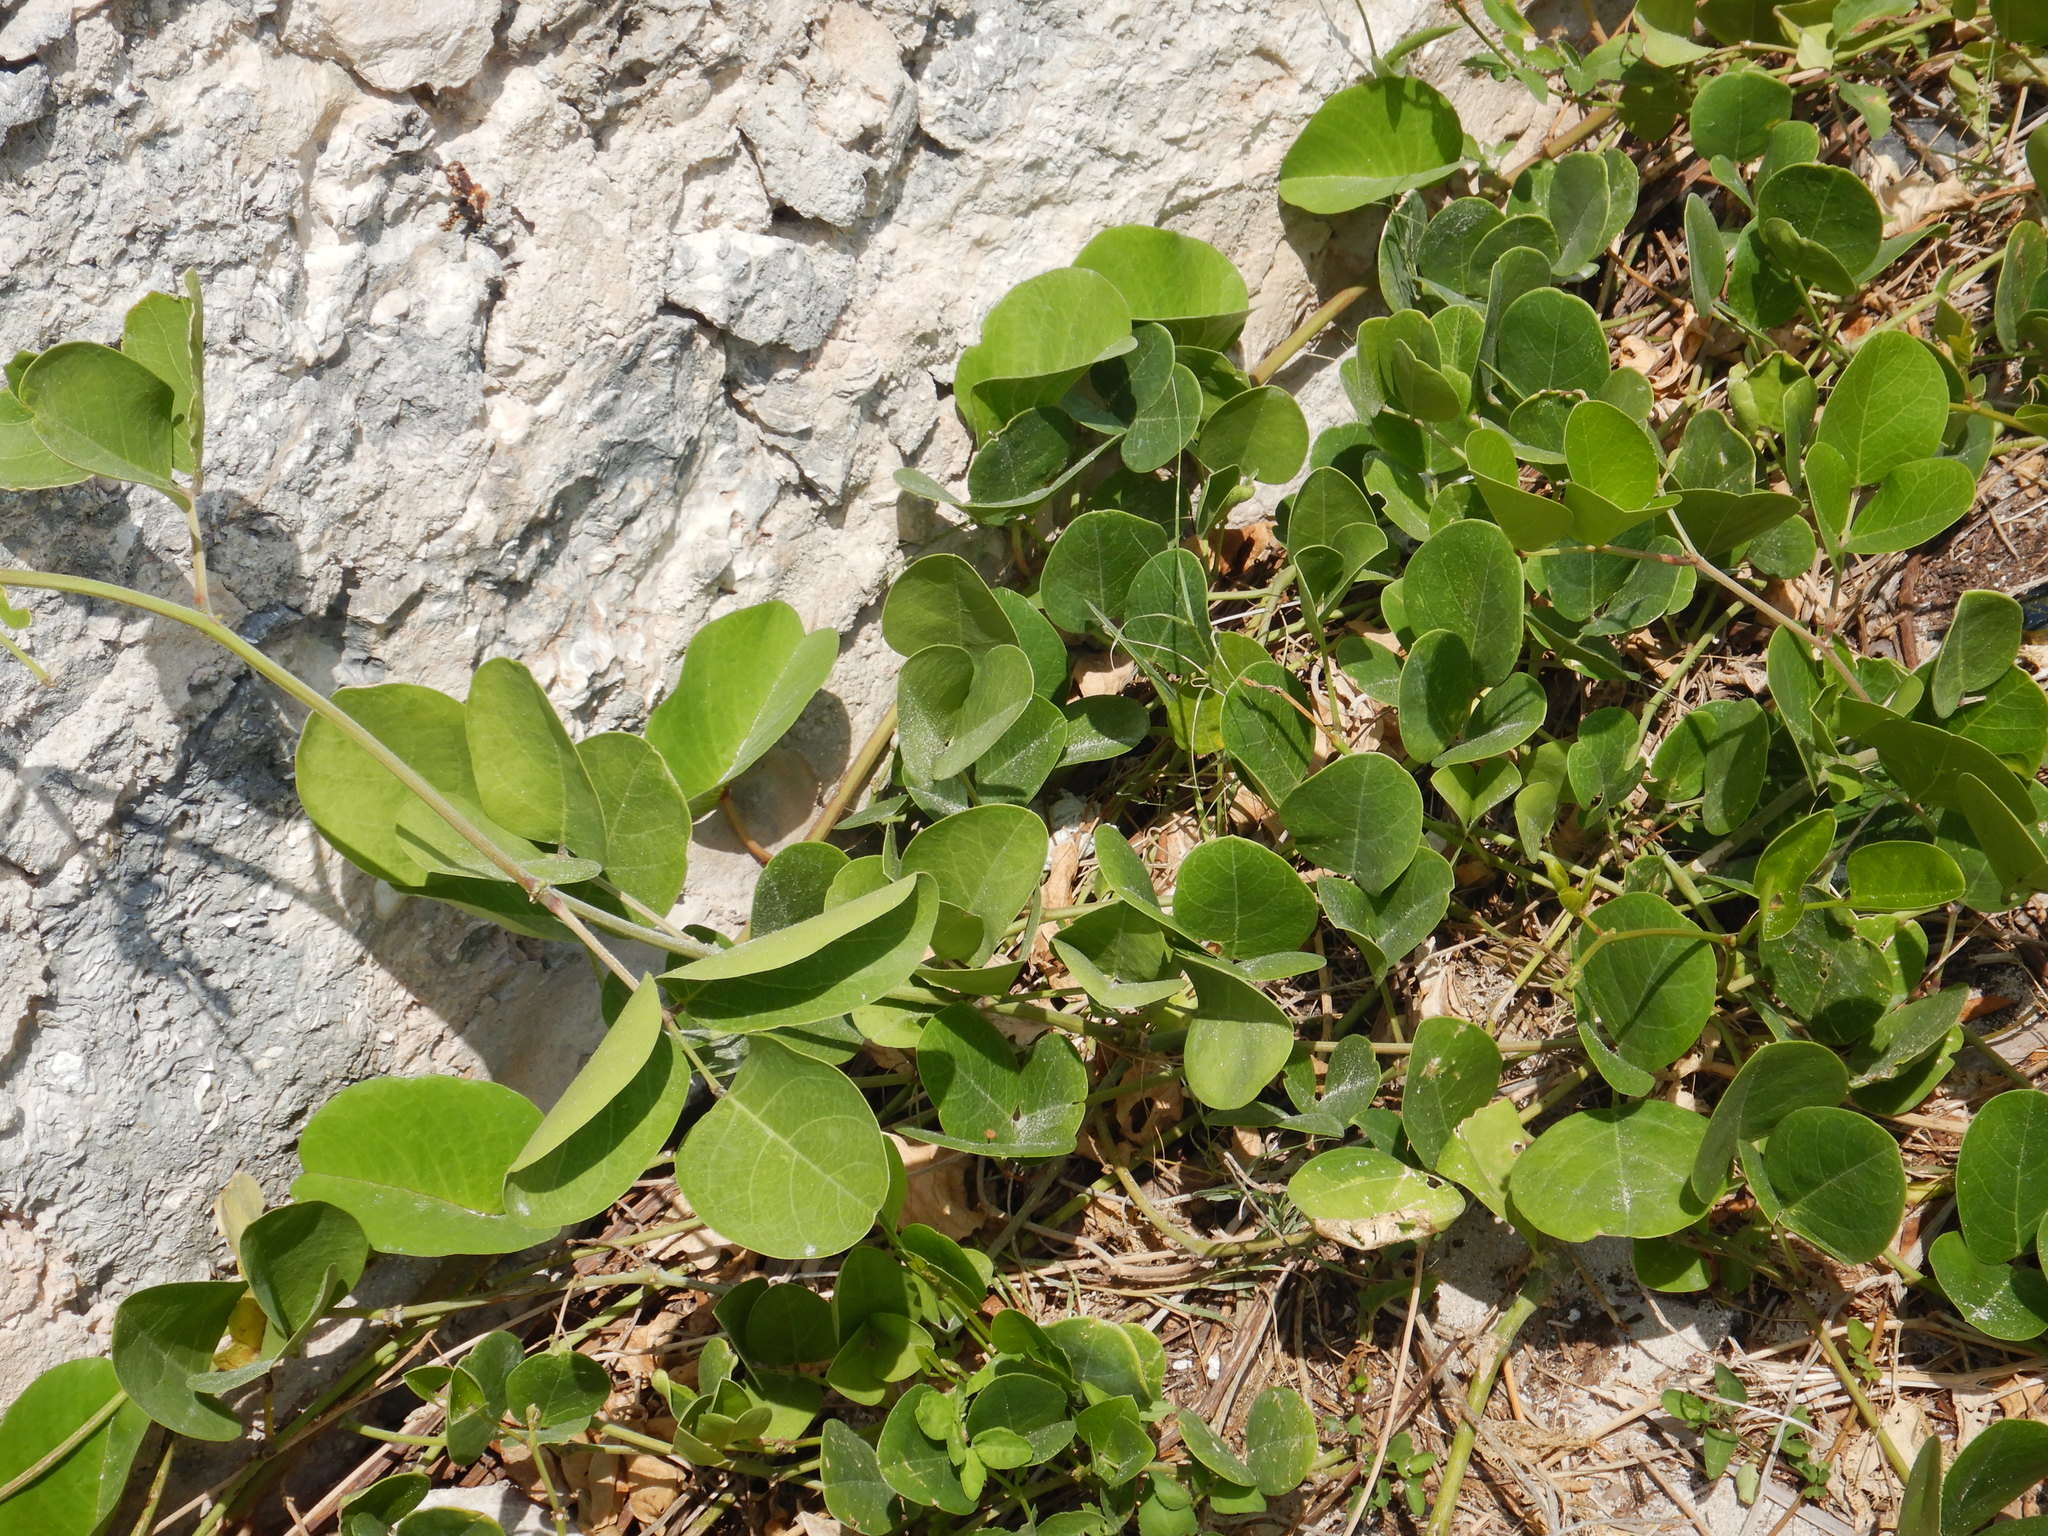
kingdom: Plantae
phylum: Tracheophyta
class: Magnoliopsida
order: Fabales
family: Fabaceae
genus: Canavalia
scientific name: Canavalia rosea
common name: Beach-bean
